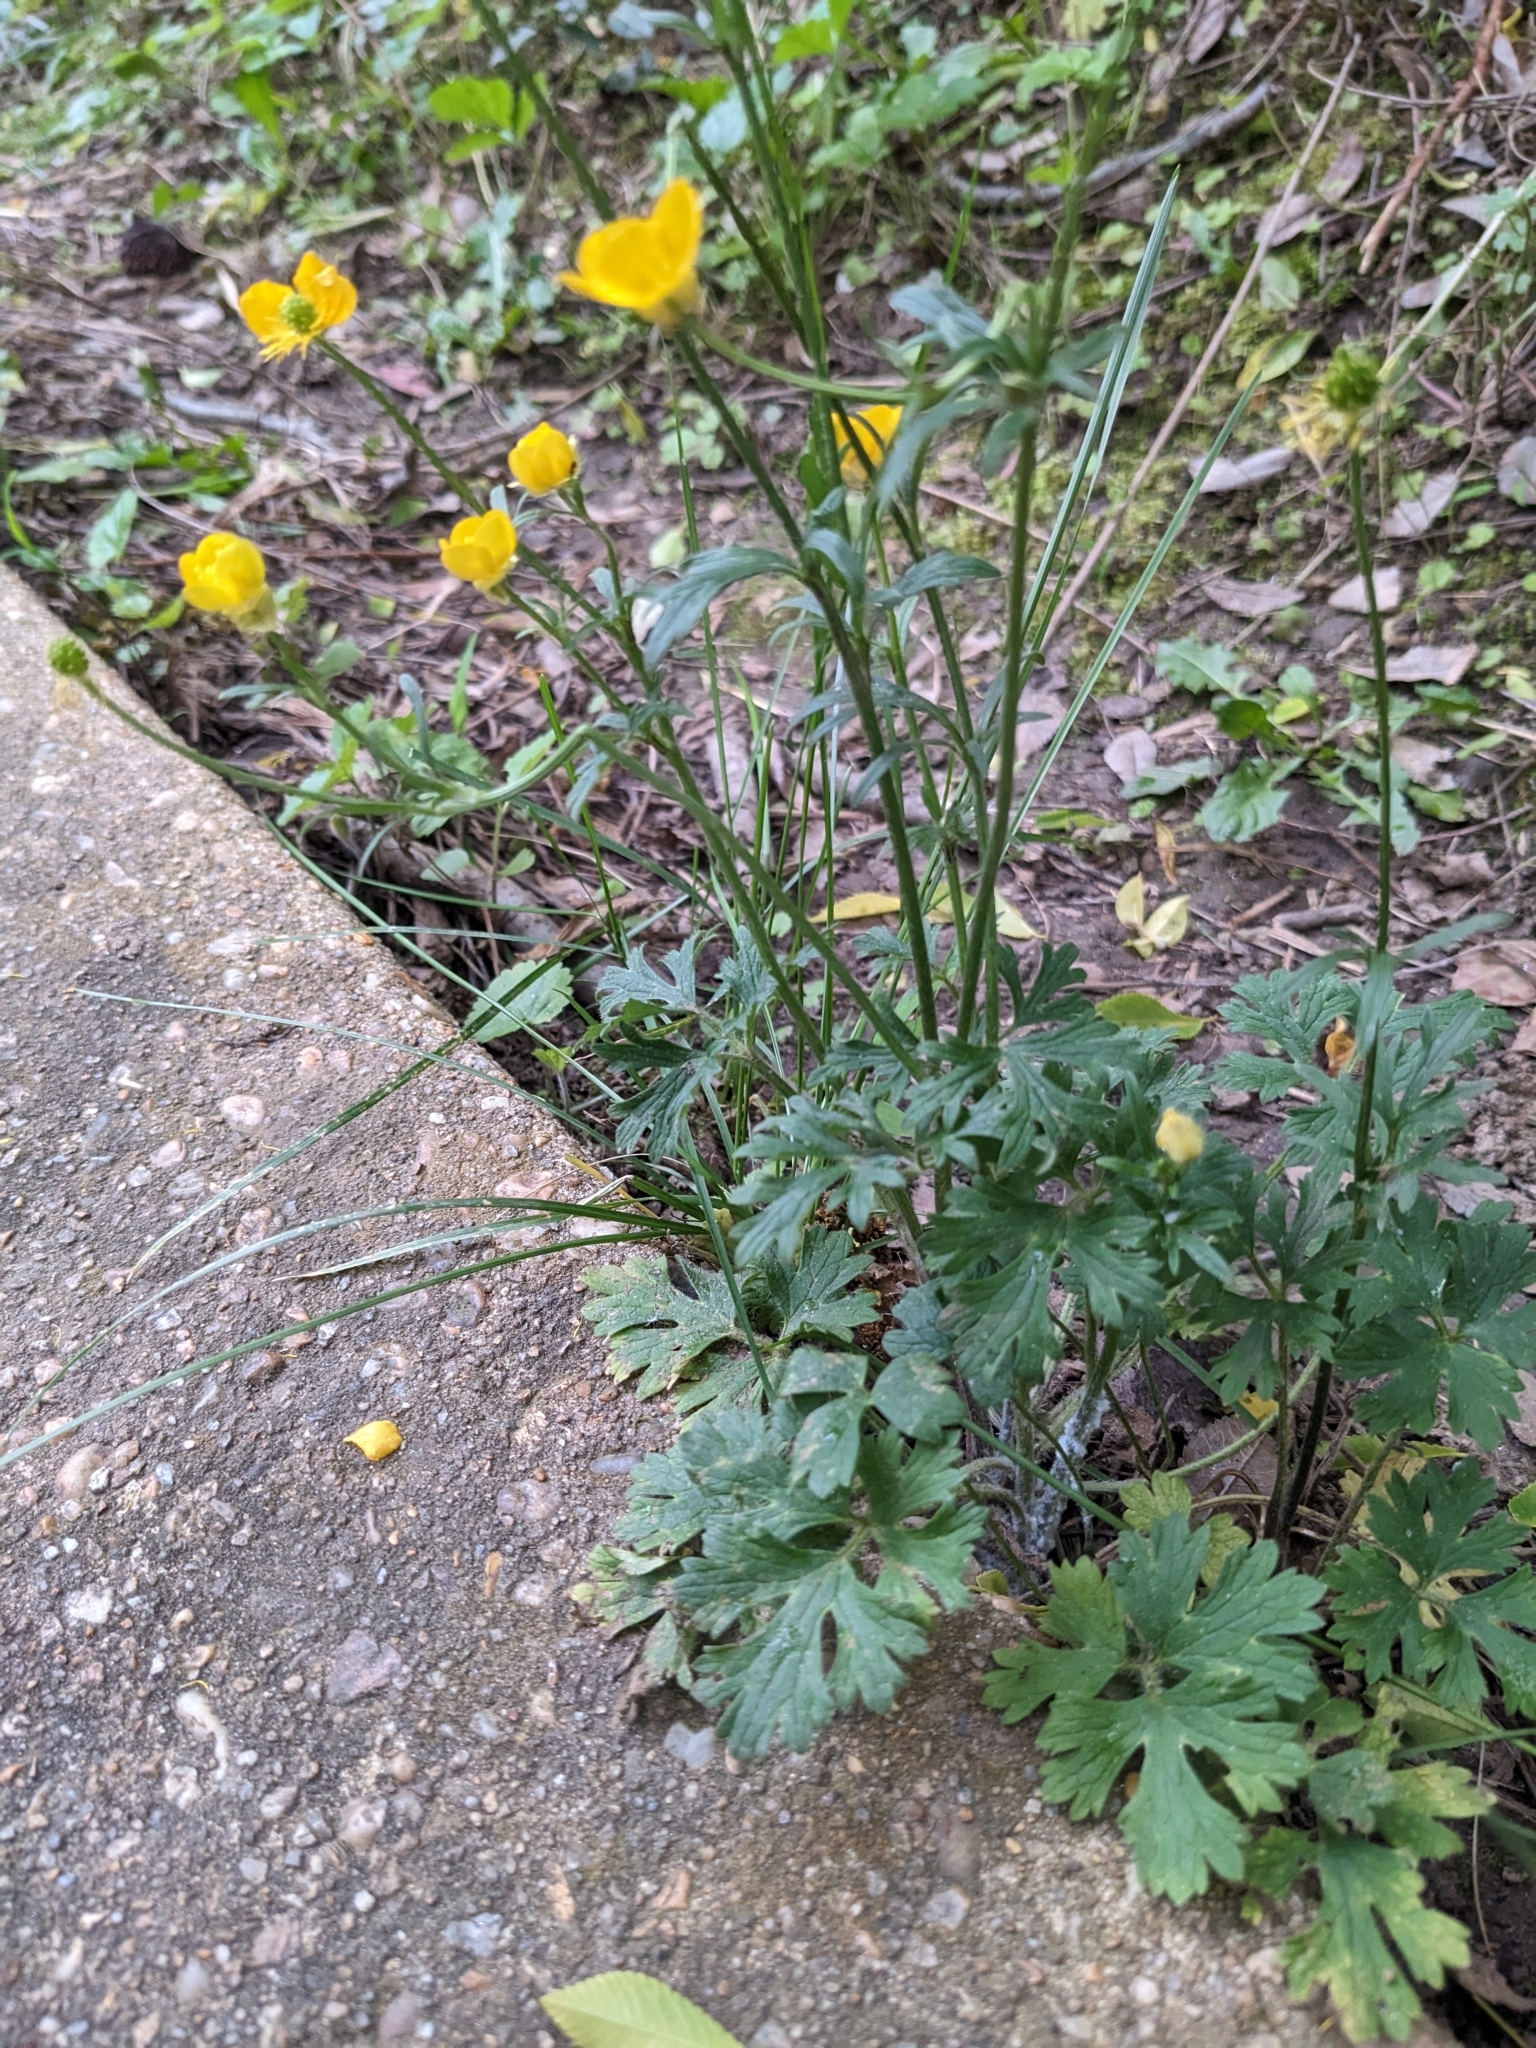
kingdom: Plantae
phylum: Tracheophyta
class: Magnoliopsida
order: Ranunculales
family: Ranunculaceae
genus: Ranunculus
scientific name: Ranunculus bulbosus
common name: Bulbous buttercup
